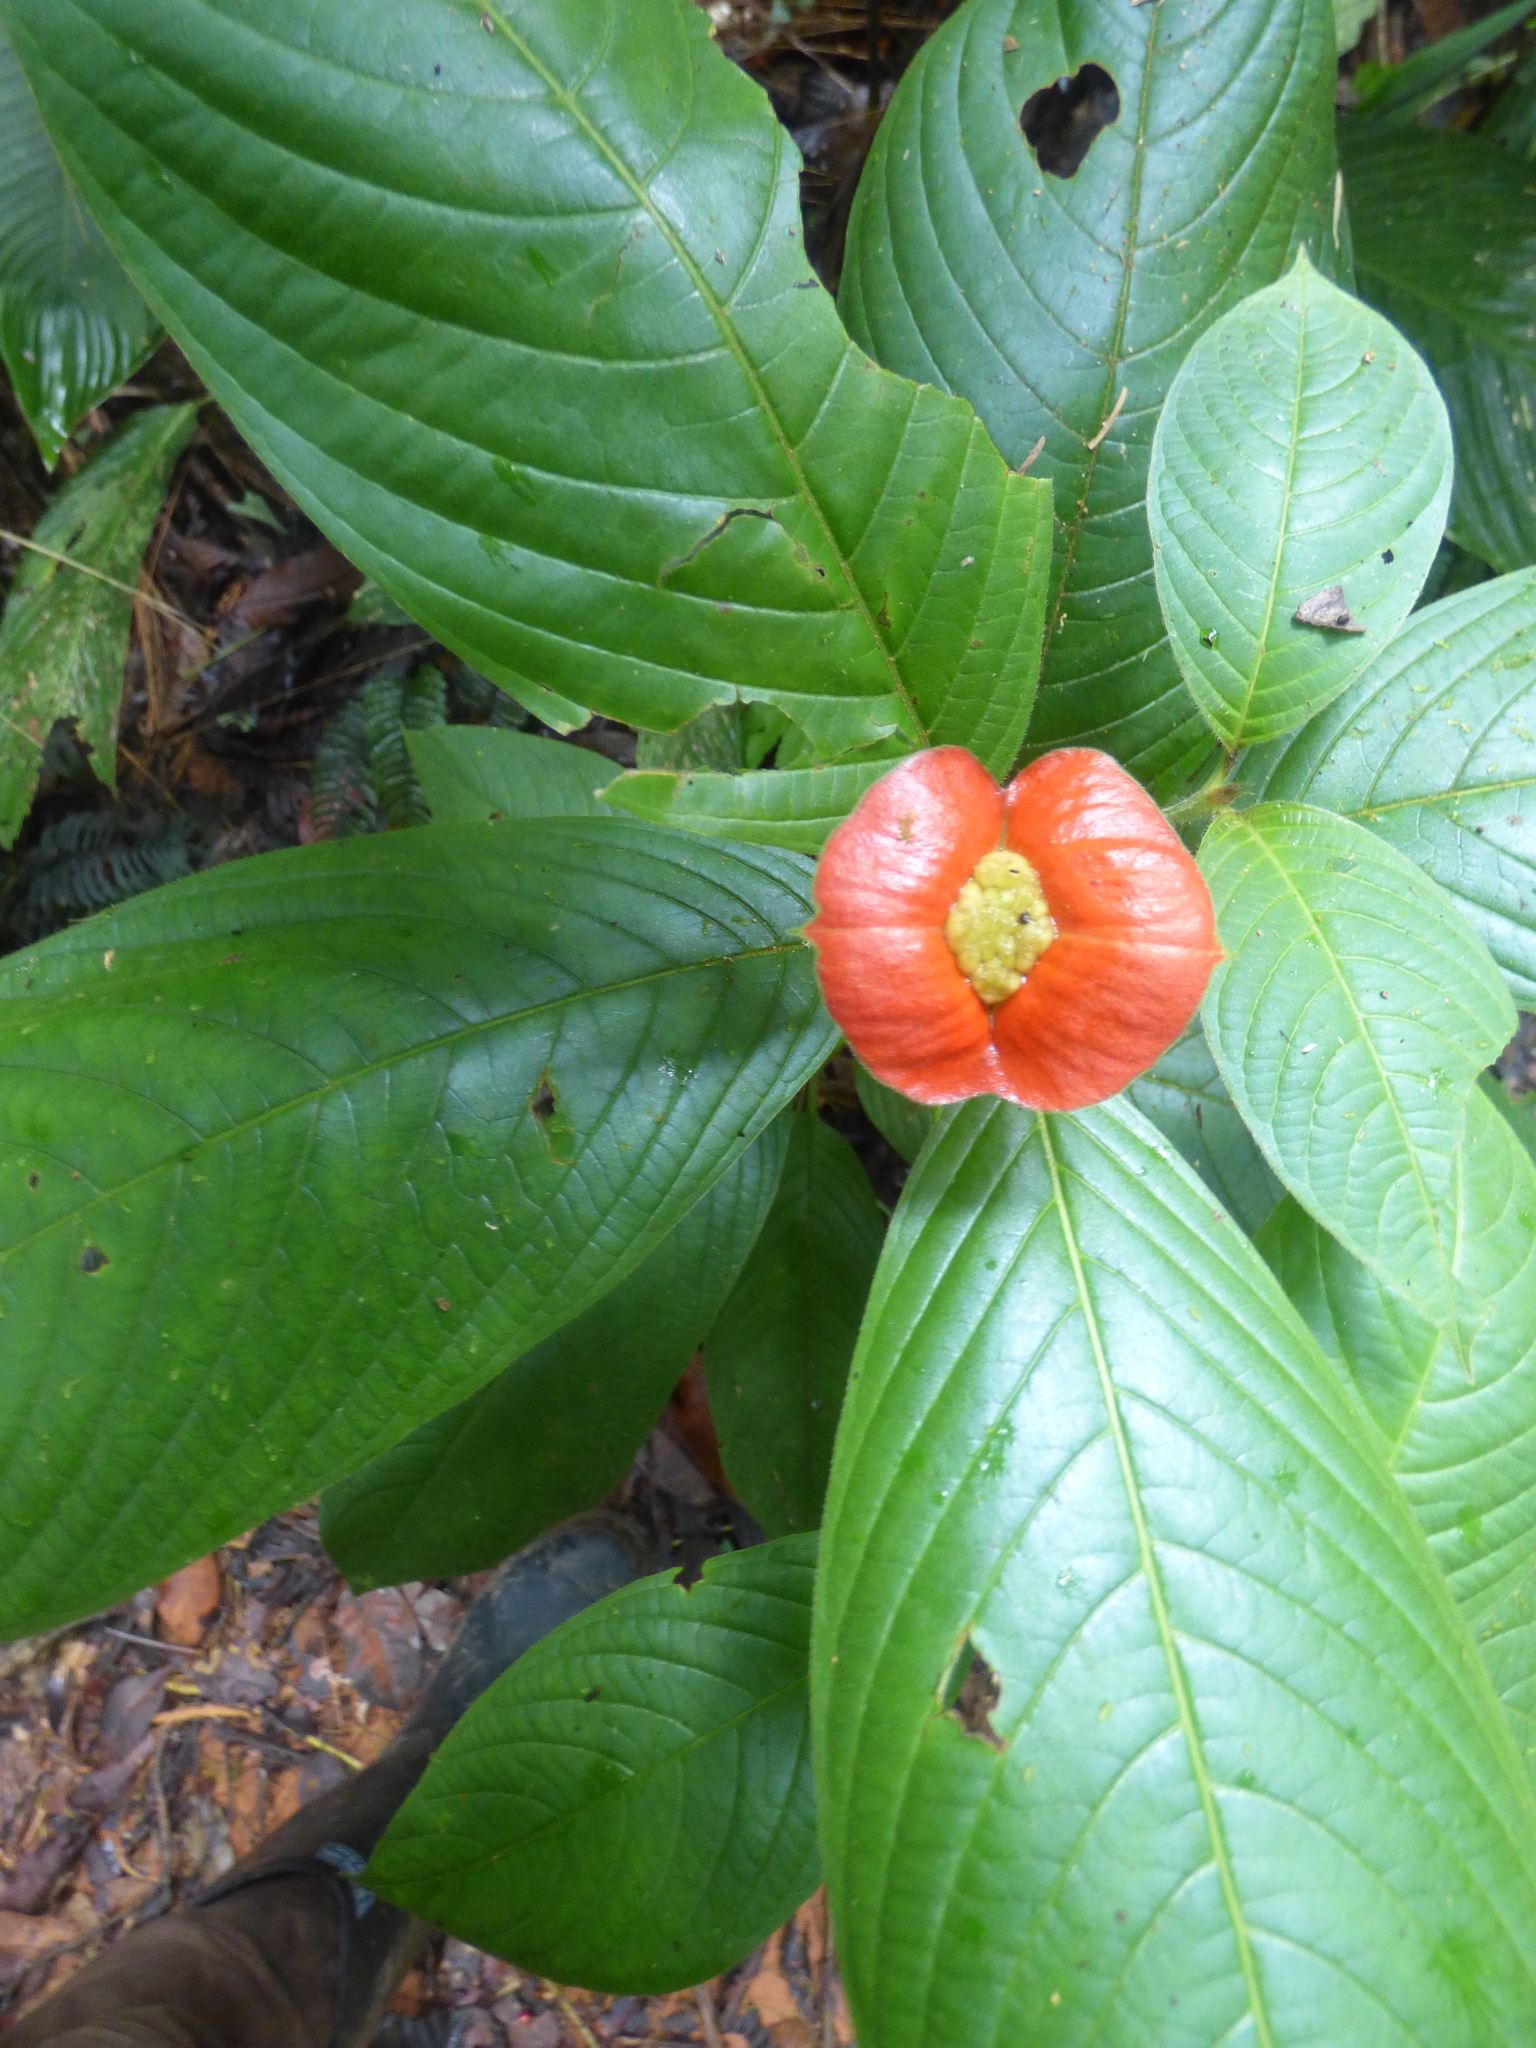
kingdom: Plantae
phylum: Tracheophyta
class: Magnoliopsida
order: Gentianales
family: Rubiaceae
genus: Palicourea
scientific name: Palicourea tomentosa
